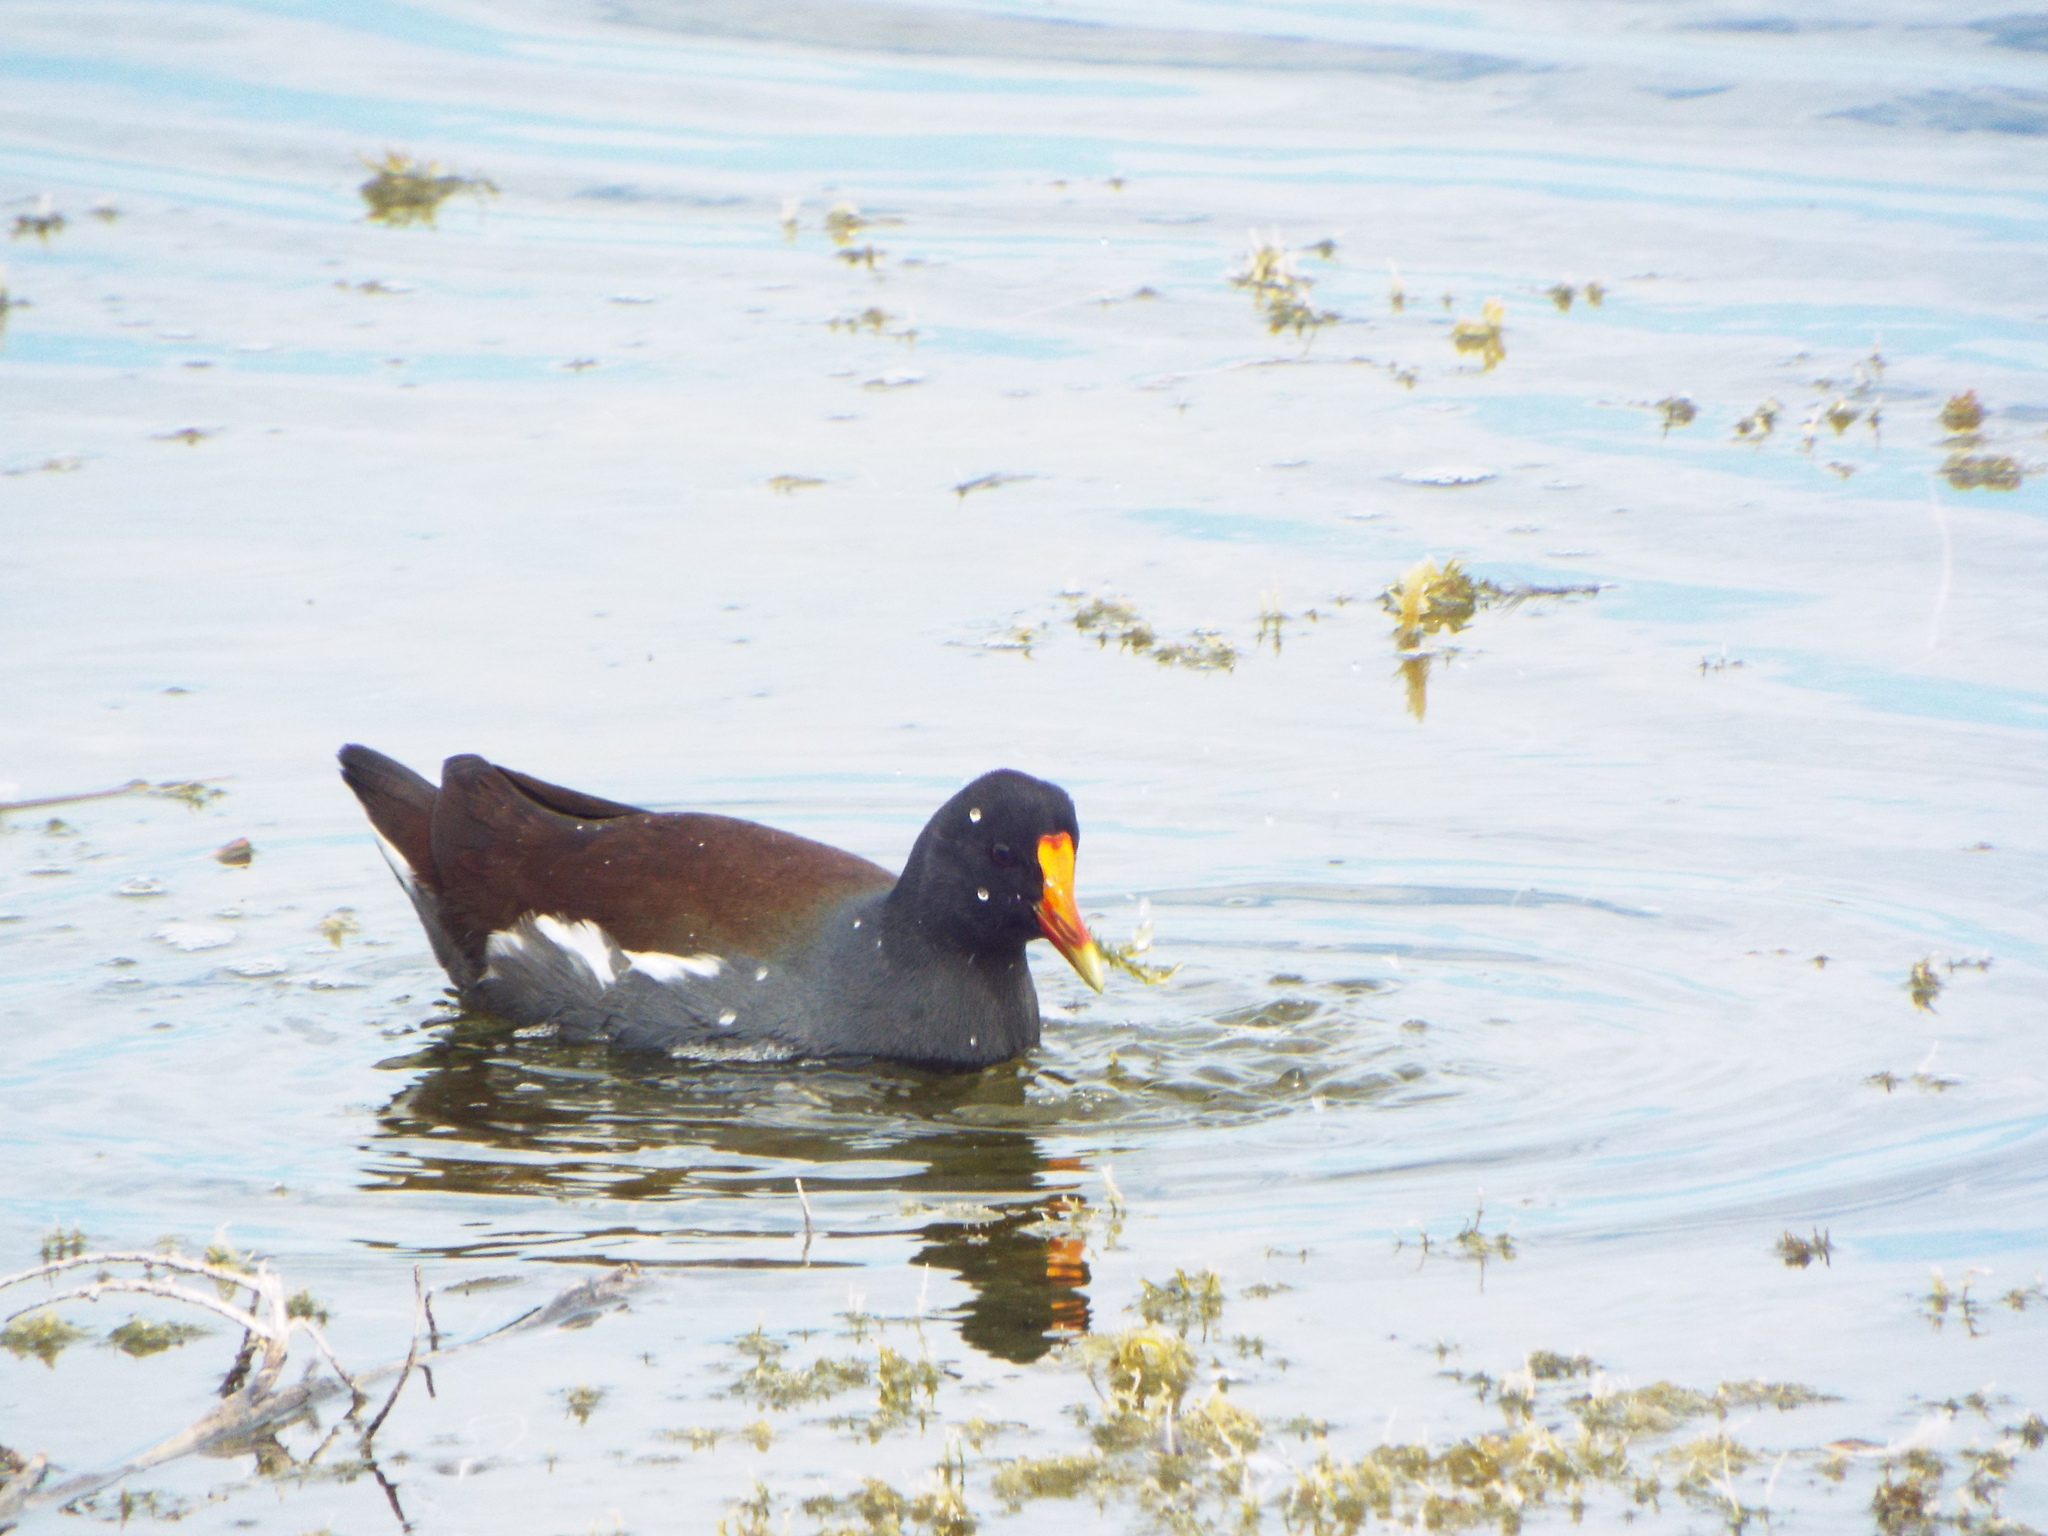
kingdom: Animalia
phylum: Chordata
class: Aves
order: Gruiformes
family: Rallidae
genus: Gallinula
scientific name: Gallinula chloropus
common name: Common moorhen
